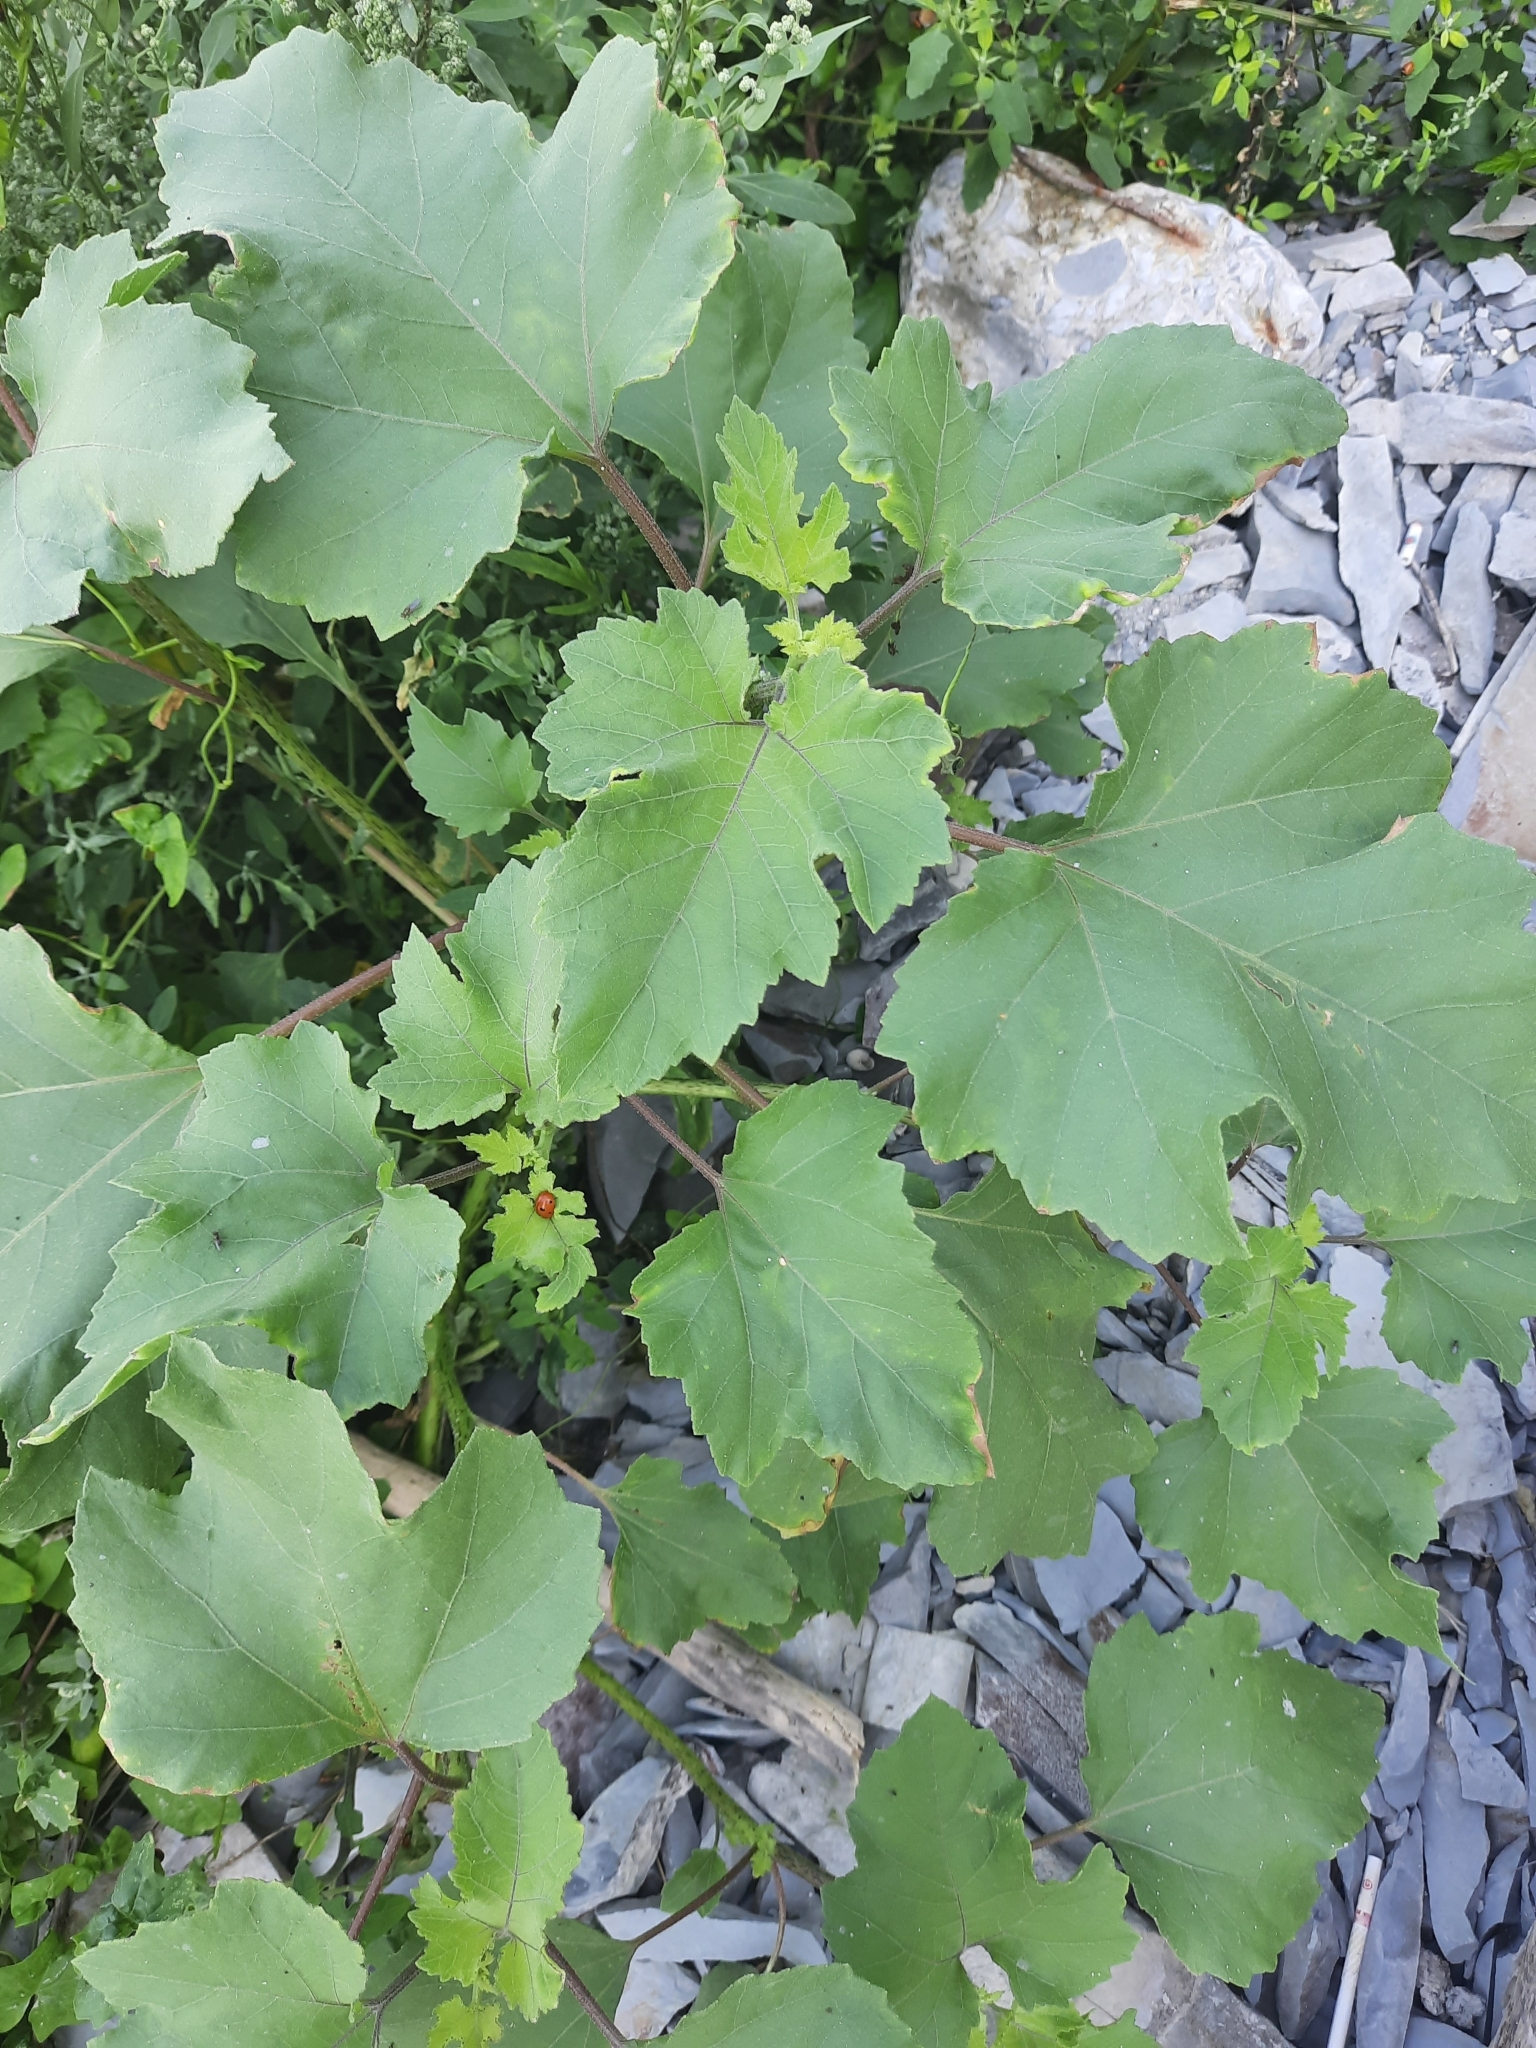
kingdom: Plantae
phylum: Tracheophyta
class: Magnoliopsida
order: Asterales
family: Asteraceae
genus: Xanthium
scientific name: Xanthium orientale
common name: Californian burr
